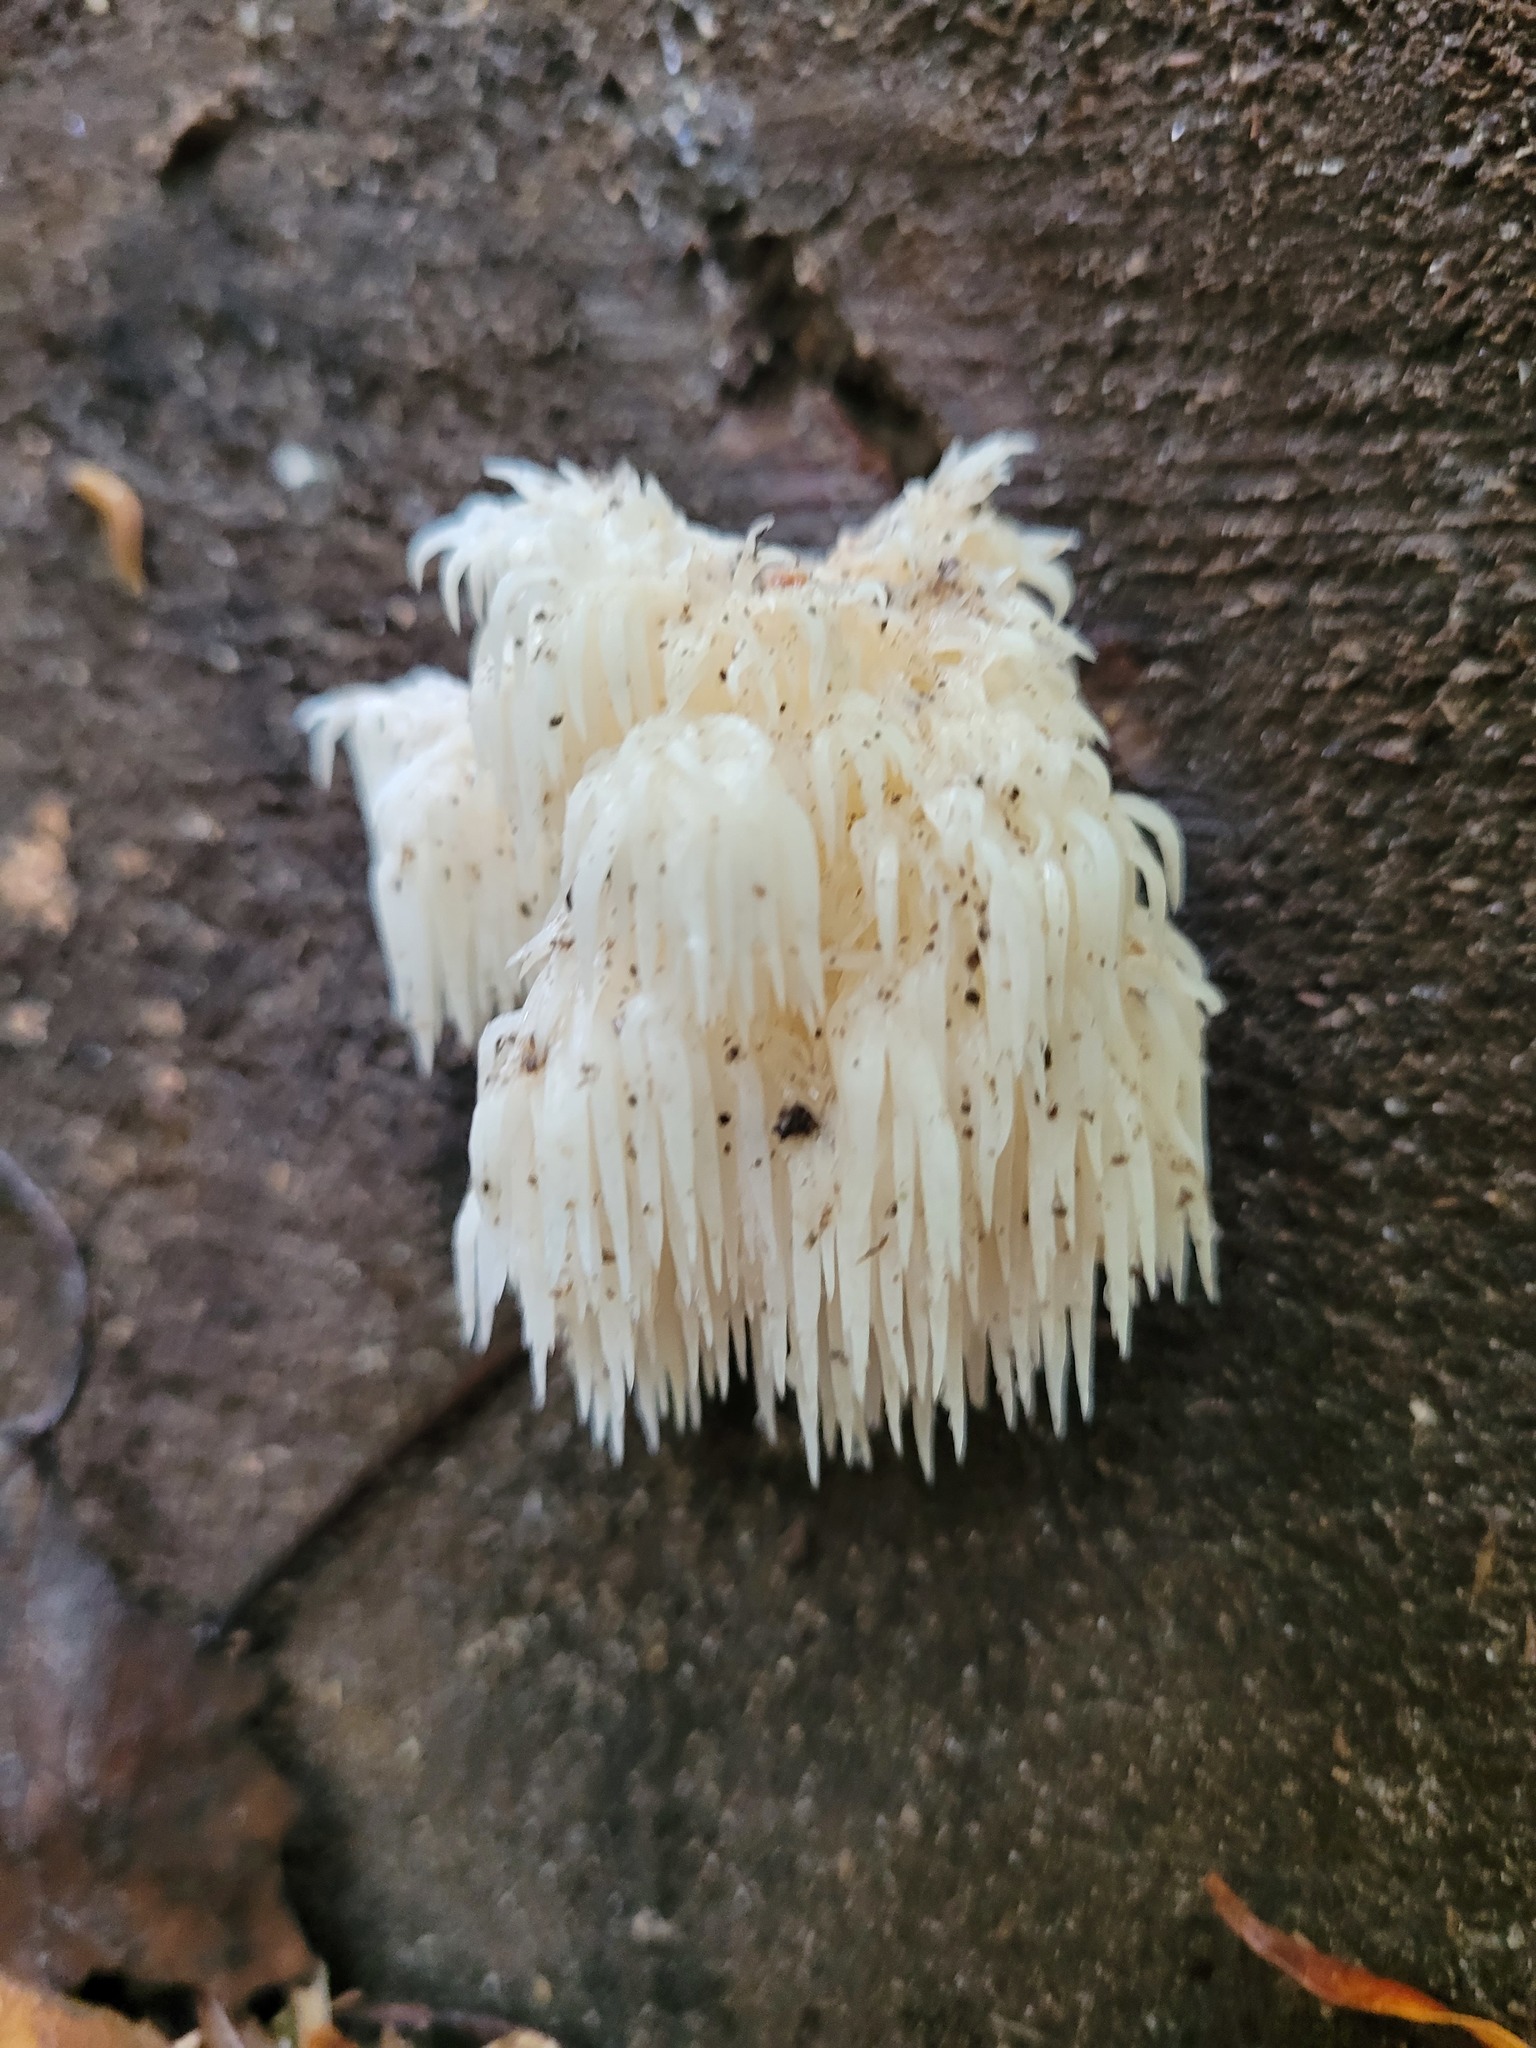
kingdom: Fungi
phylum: Basidiomycota
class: Agaricomycetes
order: Russulales
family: Hericiaceae
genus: Hericium
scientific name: Hericium coralloides
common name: Coral tooth
